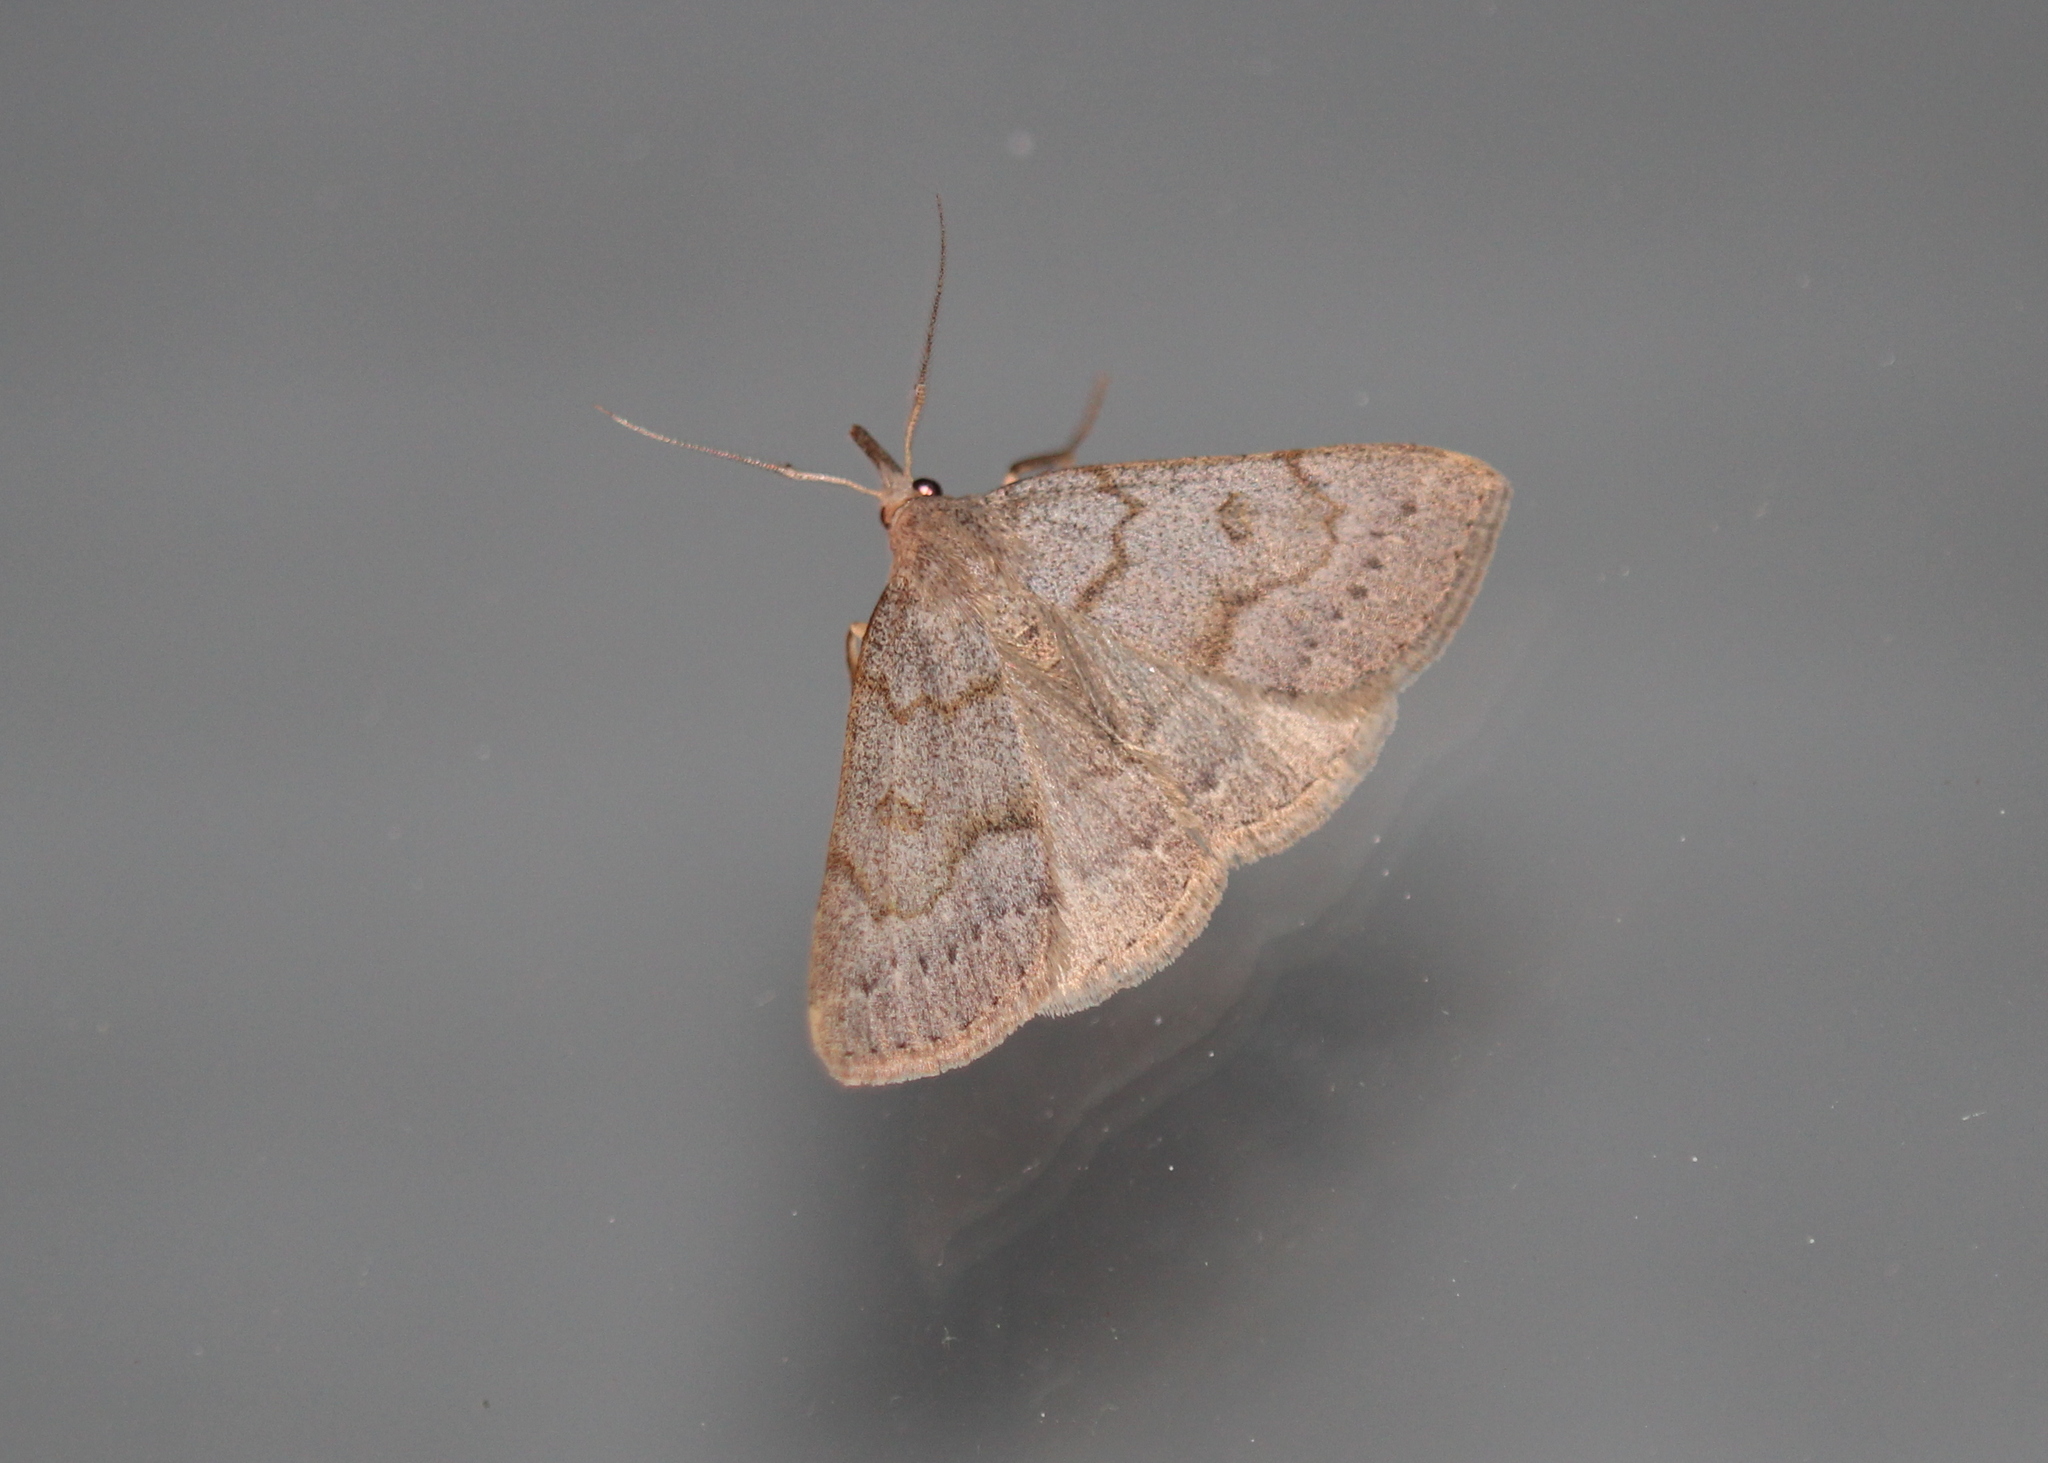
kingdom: Animalia
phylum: Arthropoda
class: Insecta
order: Lepidoptera
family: Erebidae
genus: Macrochilo
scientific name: Macrochilo morbidalis
